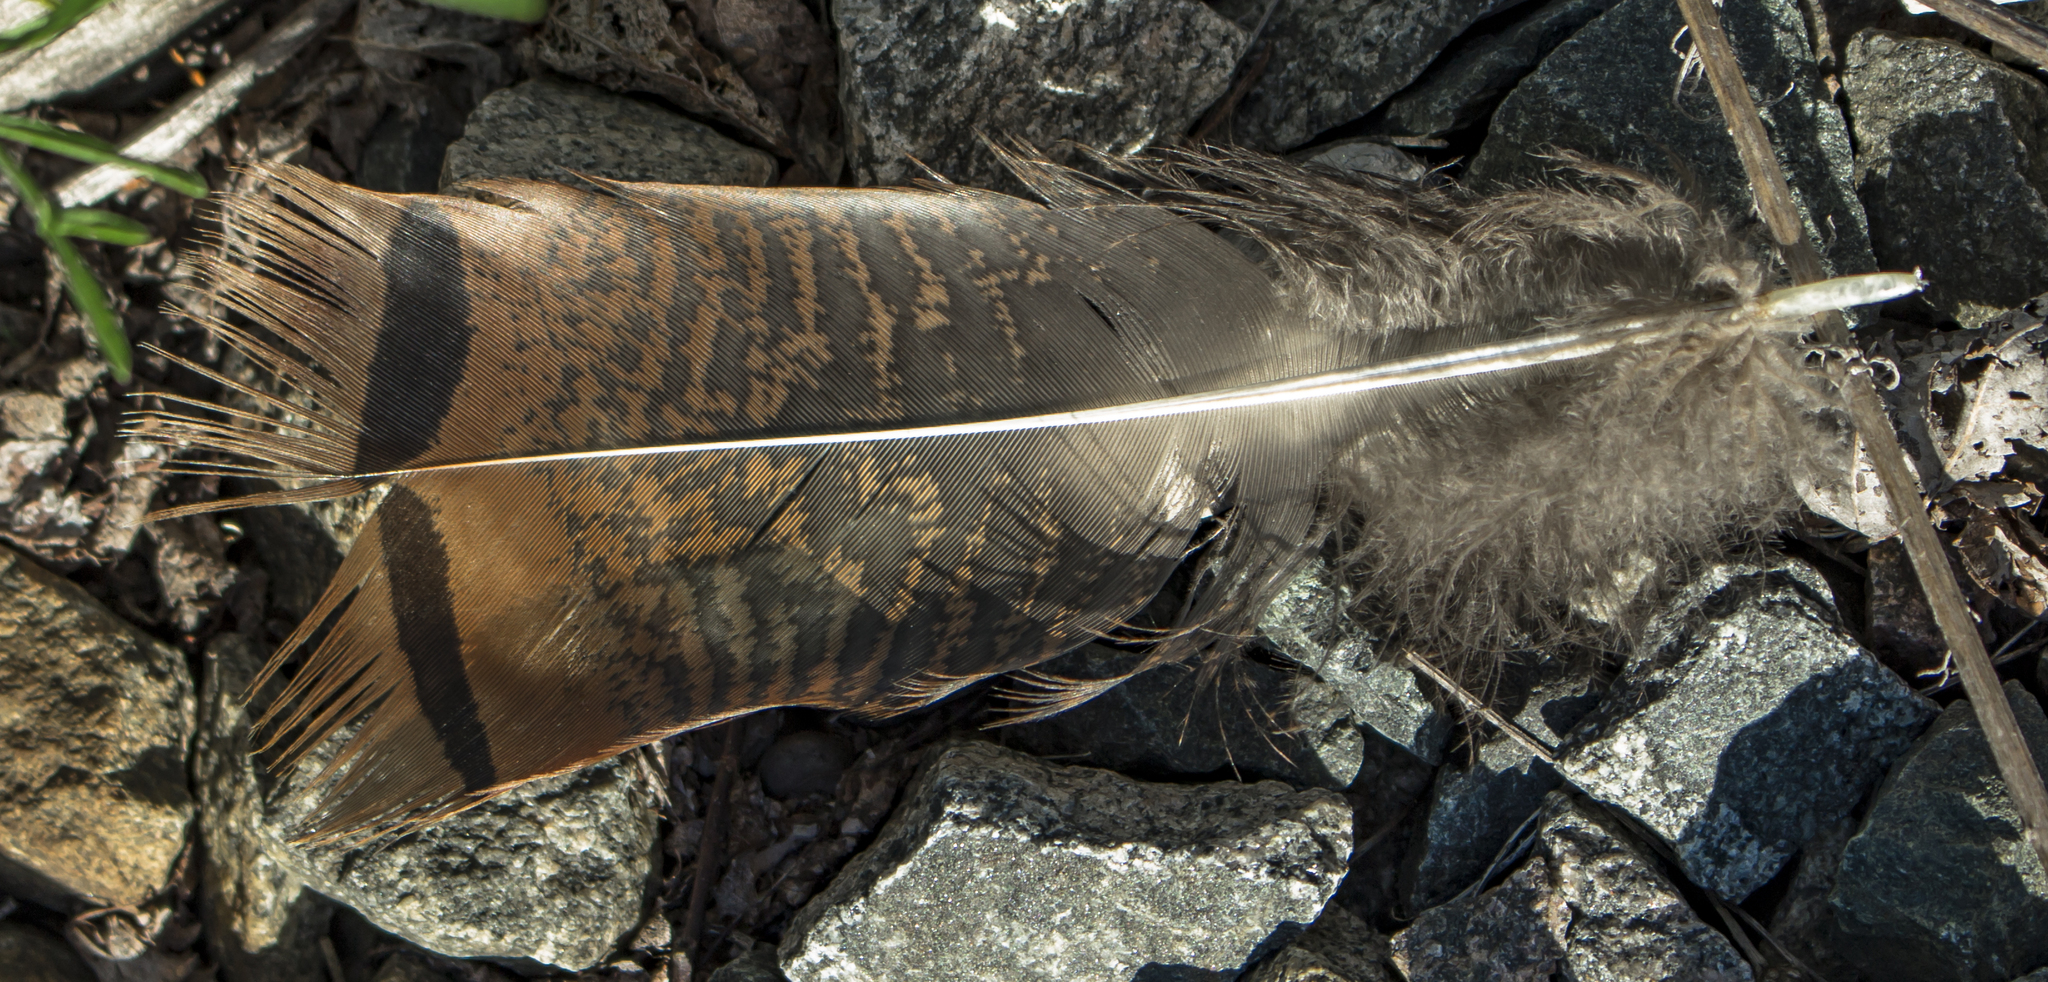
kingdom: Animalia
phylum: Chordata
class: Aves
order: Galliformes
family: Phasianidae
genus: Meleagris
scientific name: Meleagris gallopavo
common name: Wild turkey
